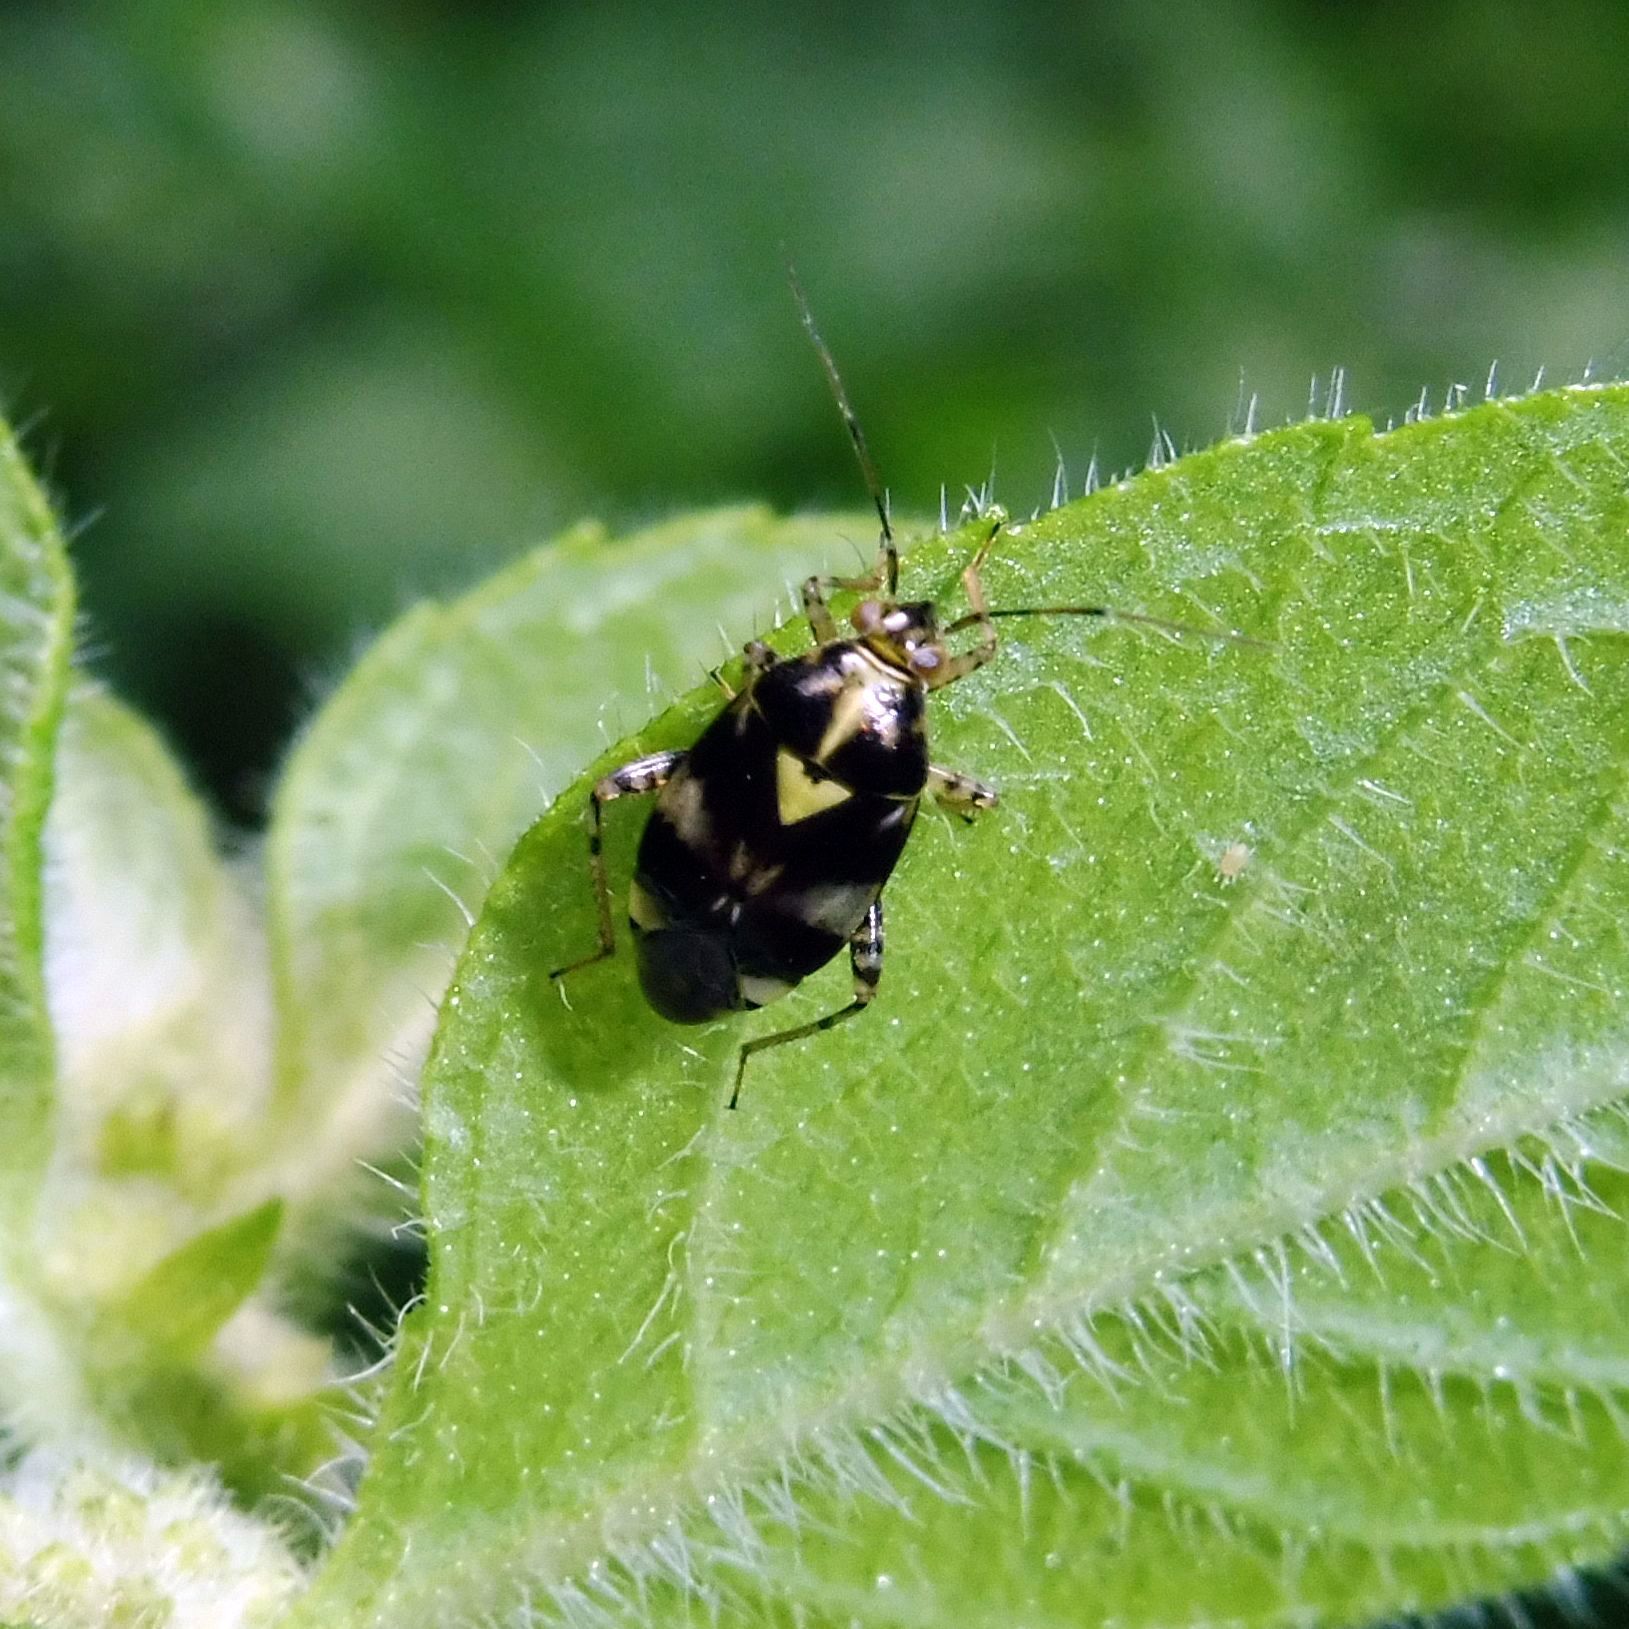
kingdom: Animalia
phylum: Arthropoda
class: Insecta
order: Hemiptera
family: Miridae
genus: Liocoris
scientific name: Liocoris tripustulatus
